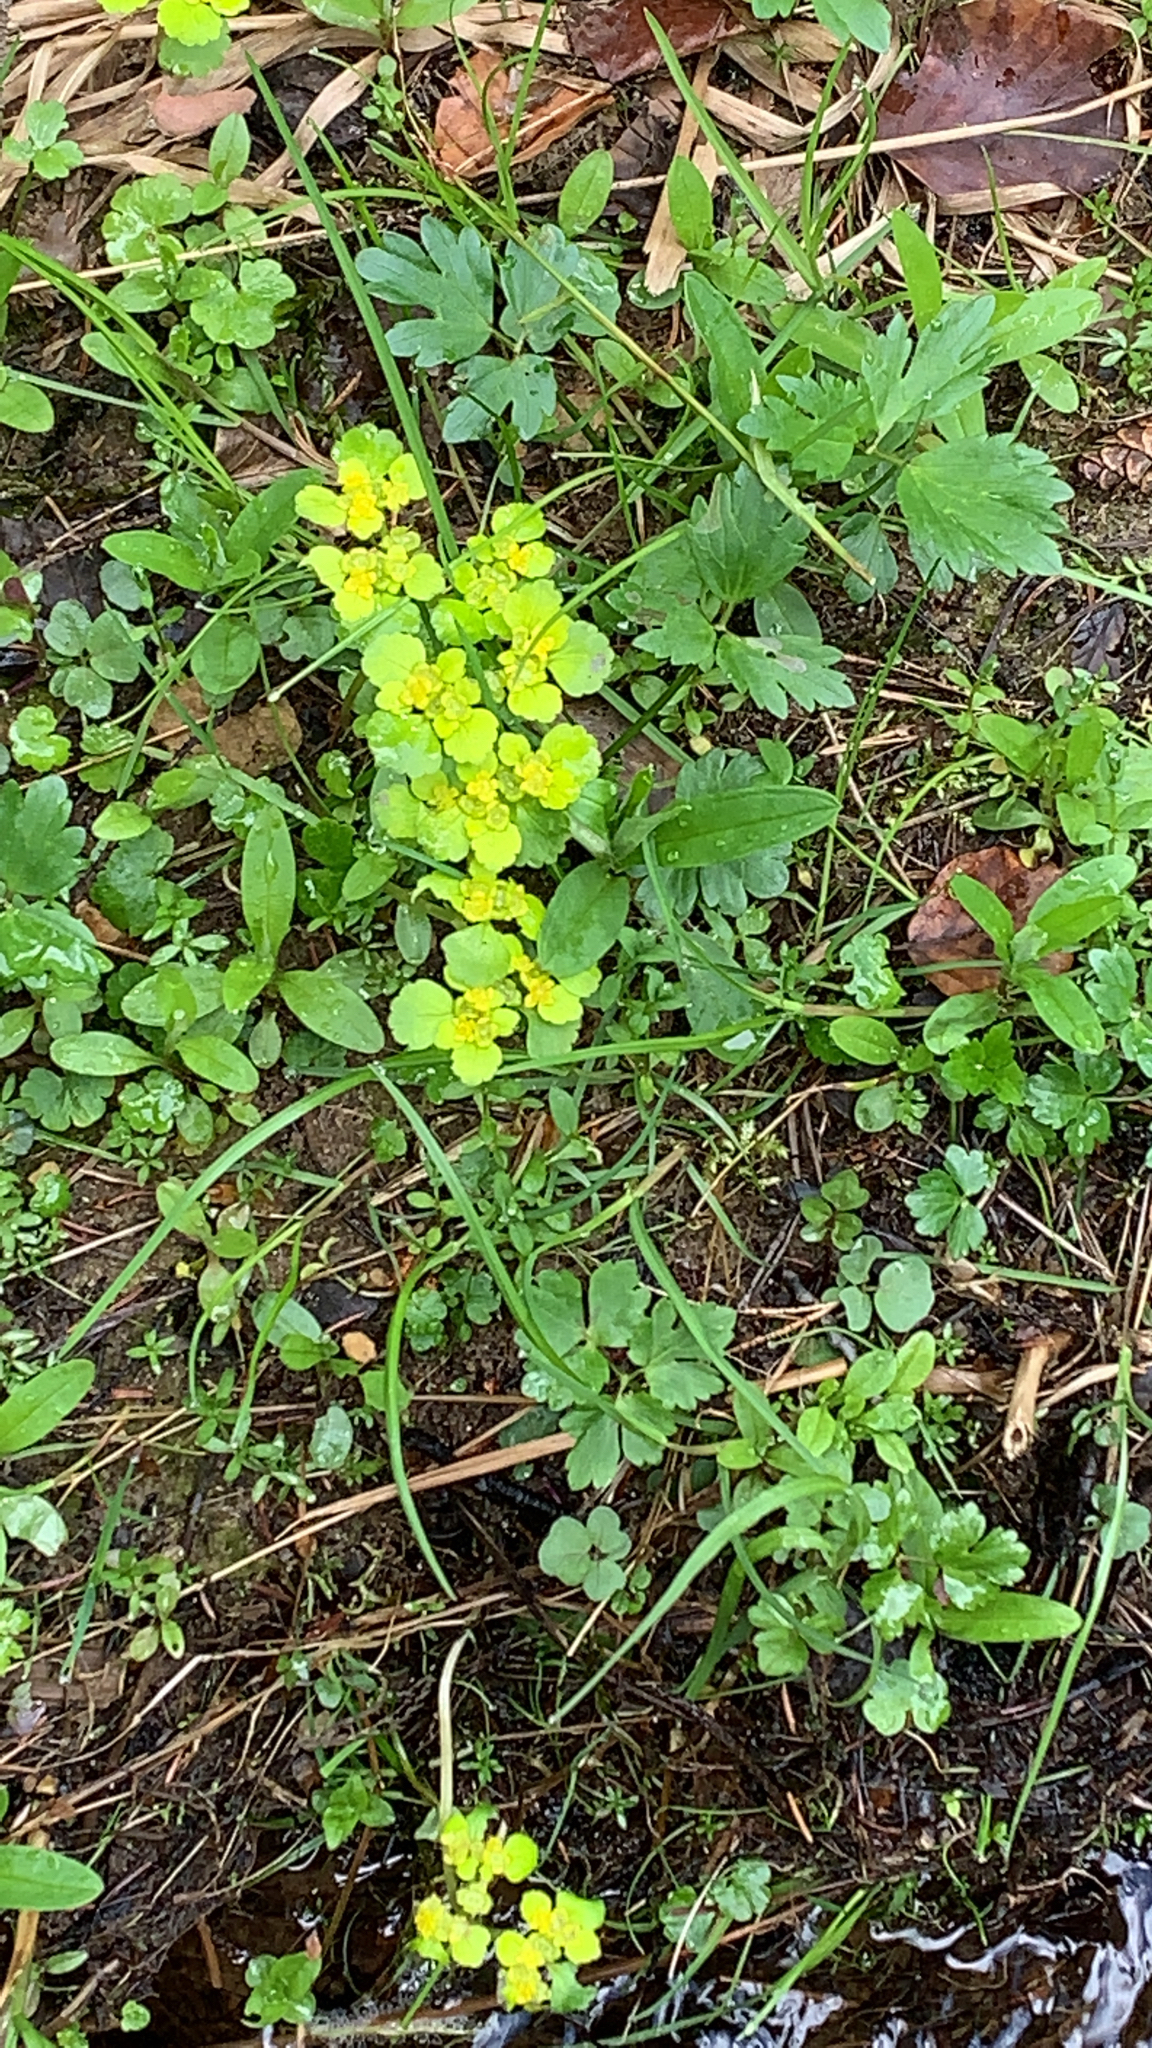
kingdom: Plantae
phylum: Tracheophyta
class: Magnoliopsida
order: Saxifragales
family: Saxifragaceae
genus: Chrysosplenium
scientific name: Chrysosplenium alternifolium
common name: Alternate-leaved golden-saxifrage
